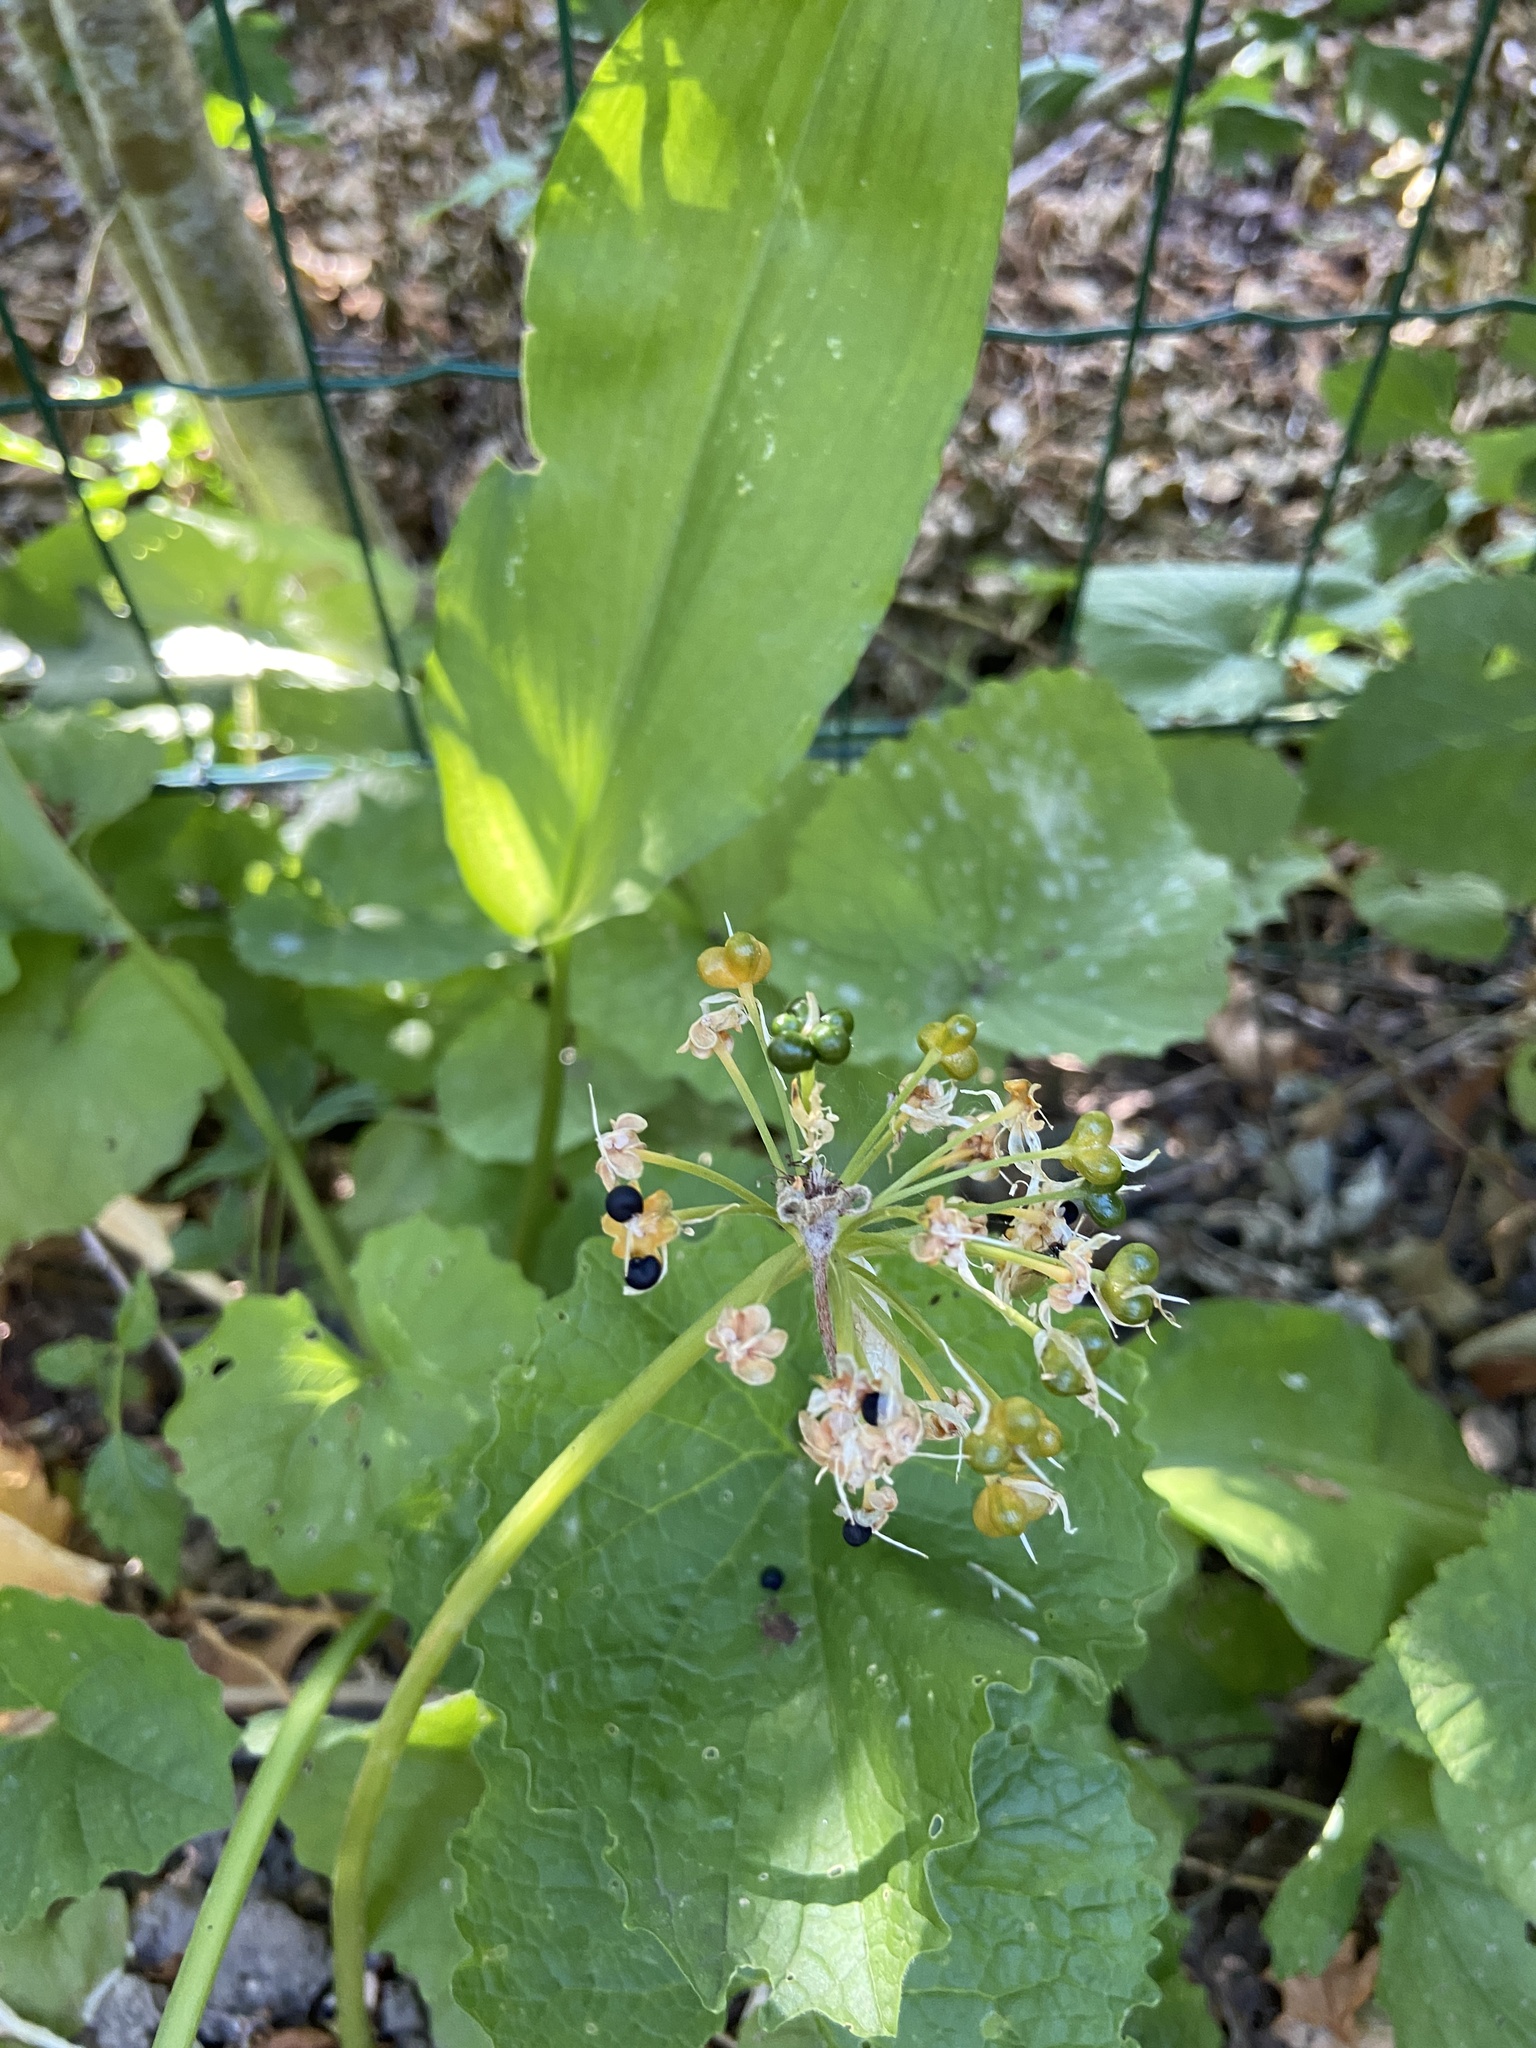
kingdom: Plantae
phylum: Tracheophyta
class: Liliopsida
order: Asparagales
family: Amaryllidaceae
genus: Allium
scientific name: Allium ursinum
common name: Ramsons
